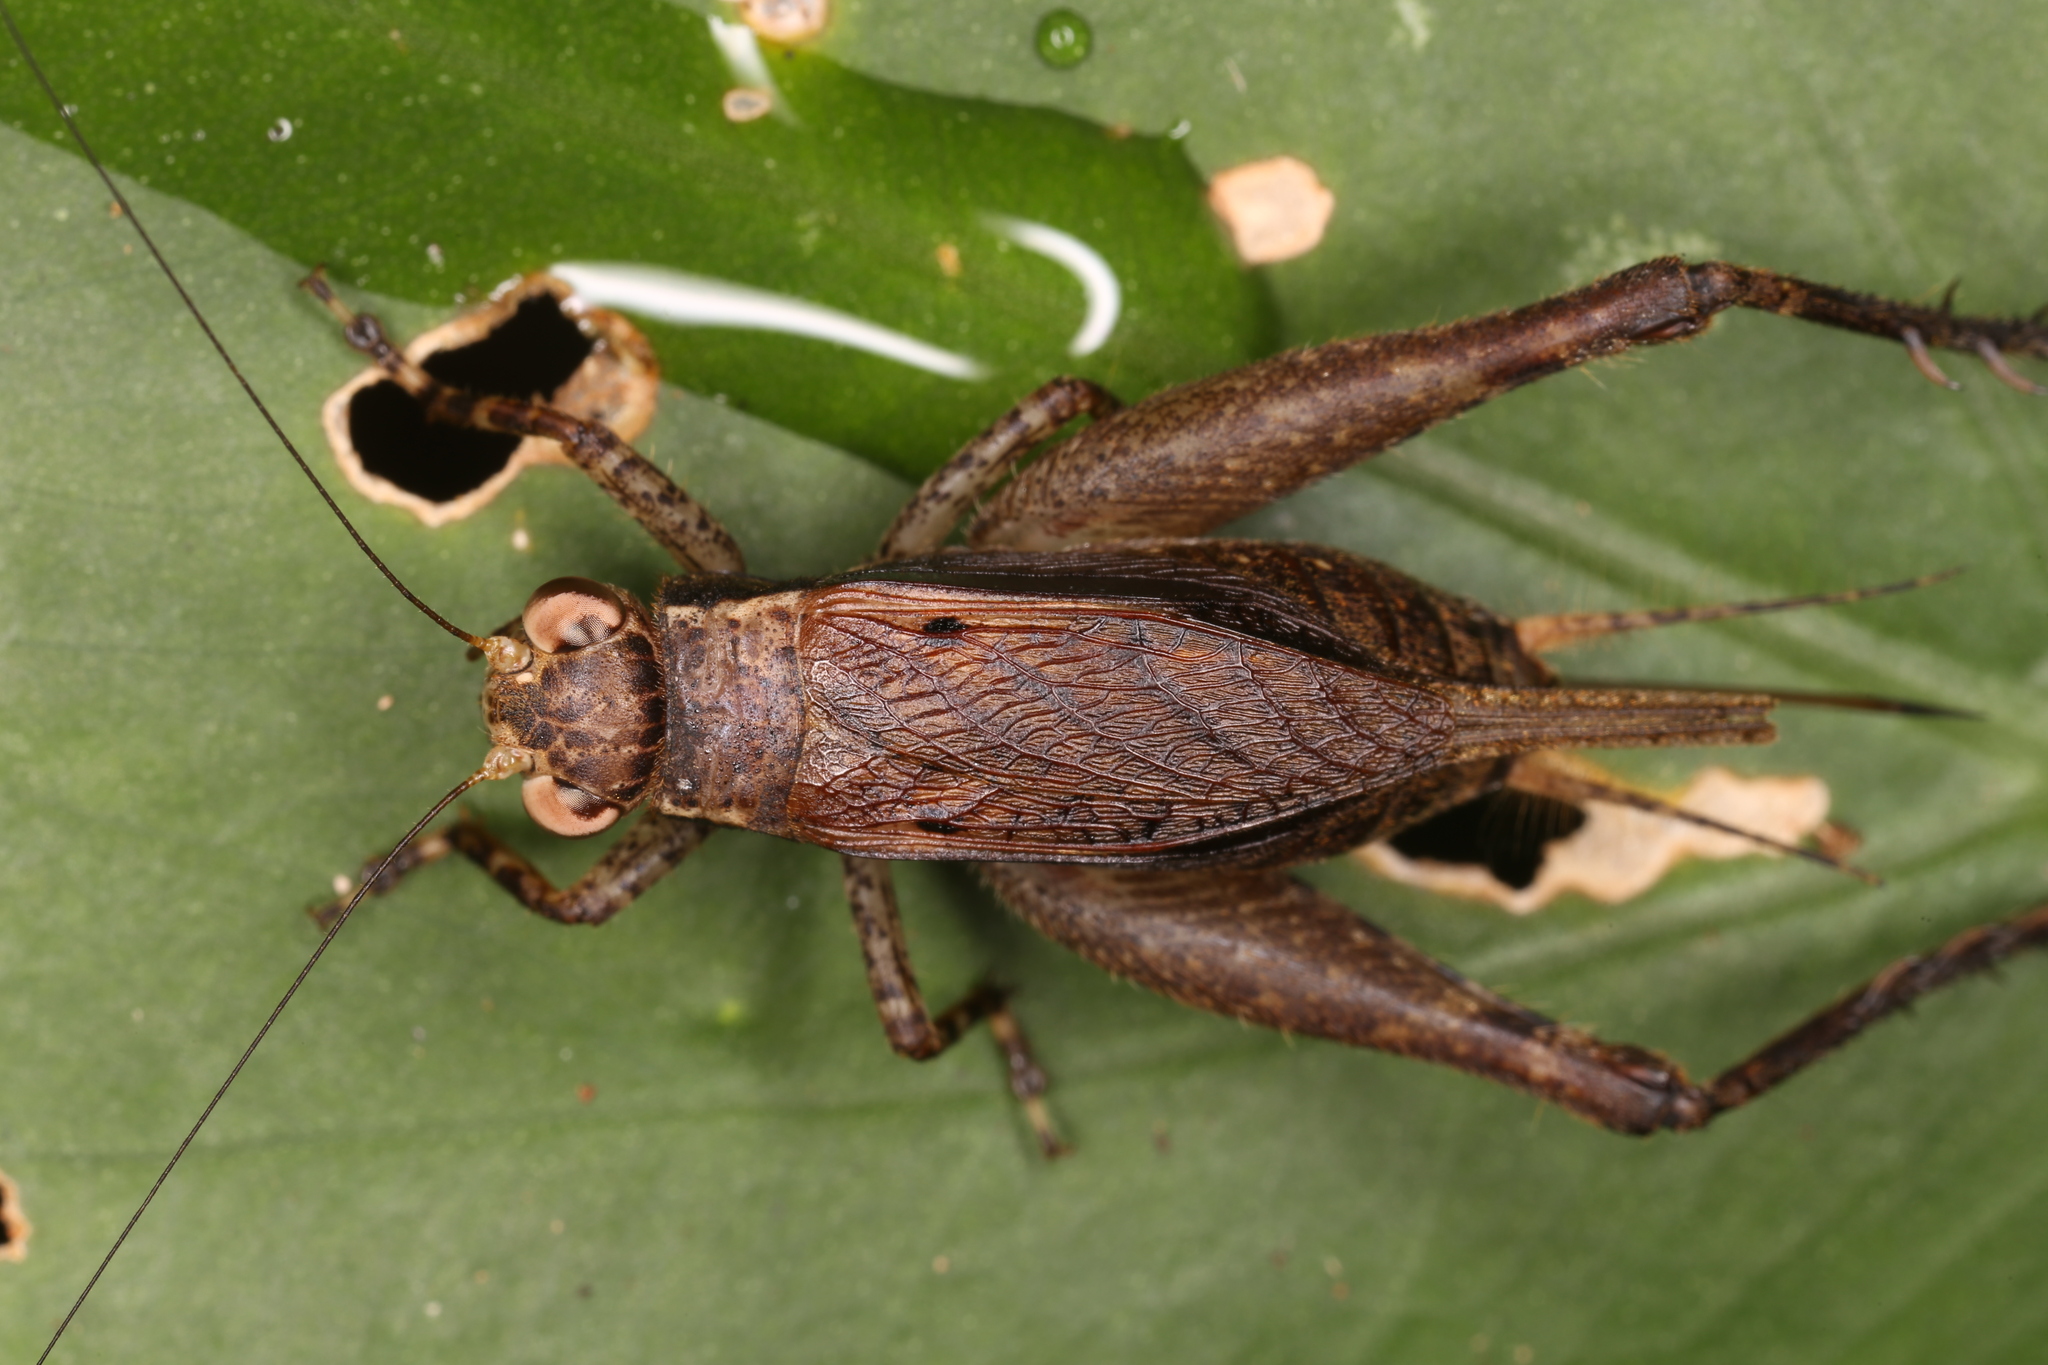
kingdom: Animalia
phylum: Arthropoda
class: Insecta
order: Orthoptera
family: Gryllidae
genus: Ponca
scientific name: Ponca venosa
